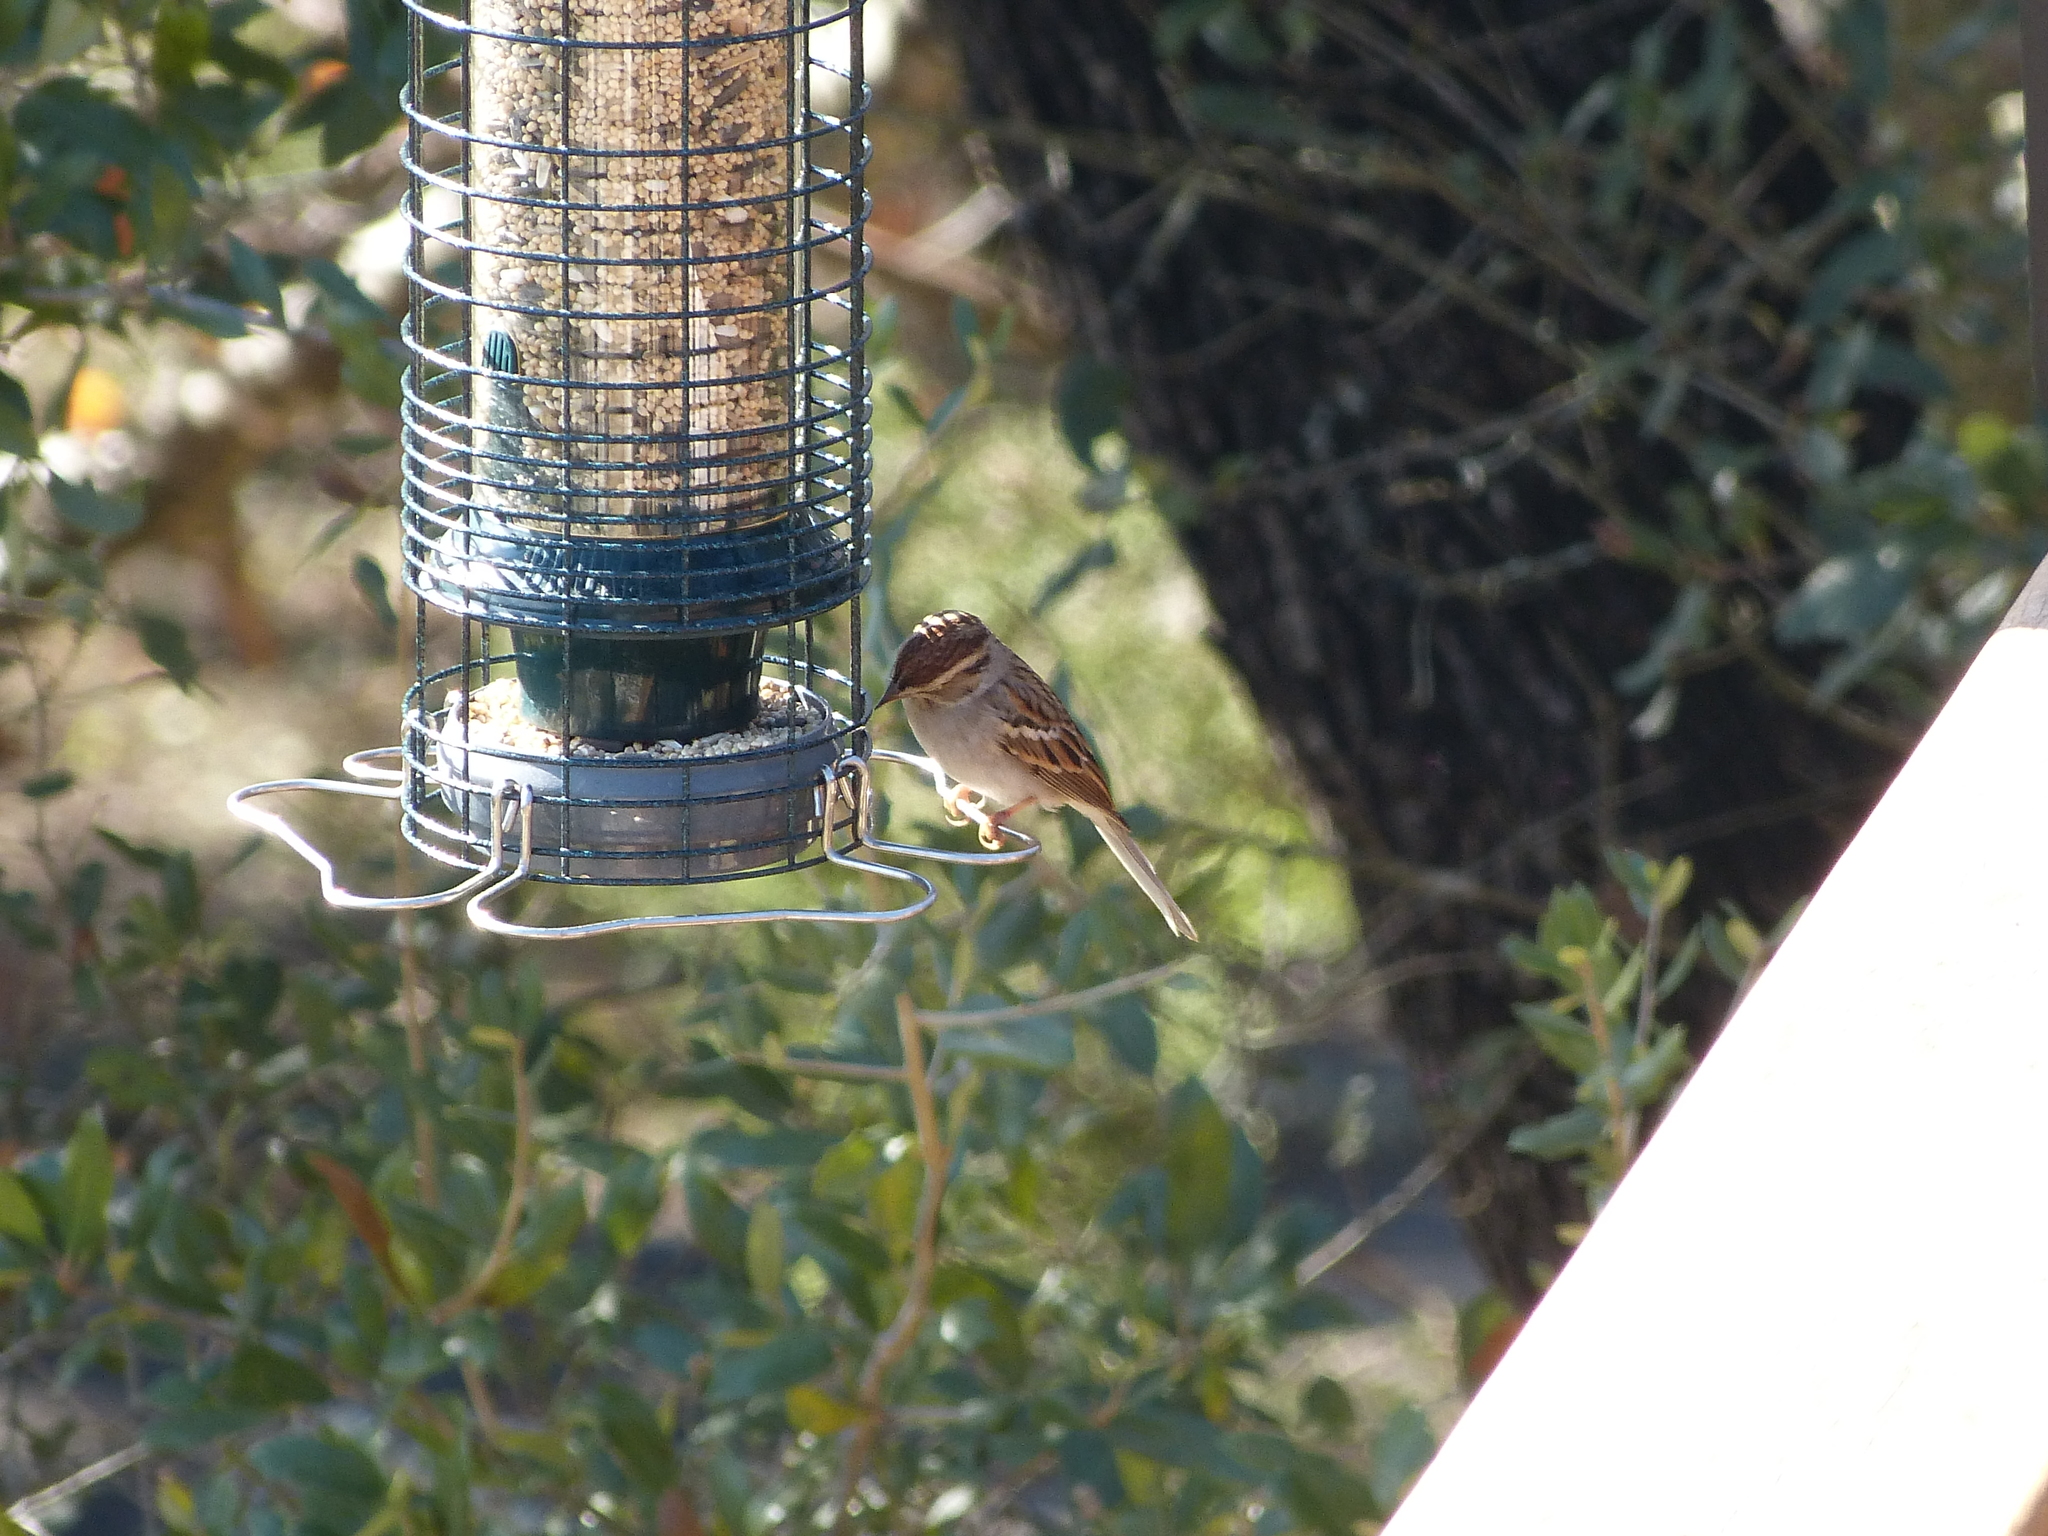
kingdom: Animalia
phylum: Chordata
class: Aves
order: Passeriformes
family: Passerellidae
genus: Spizella
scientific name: Spizella passerina
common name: Chipping sparrow
